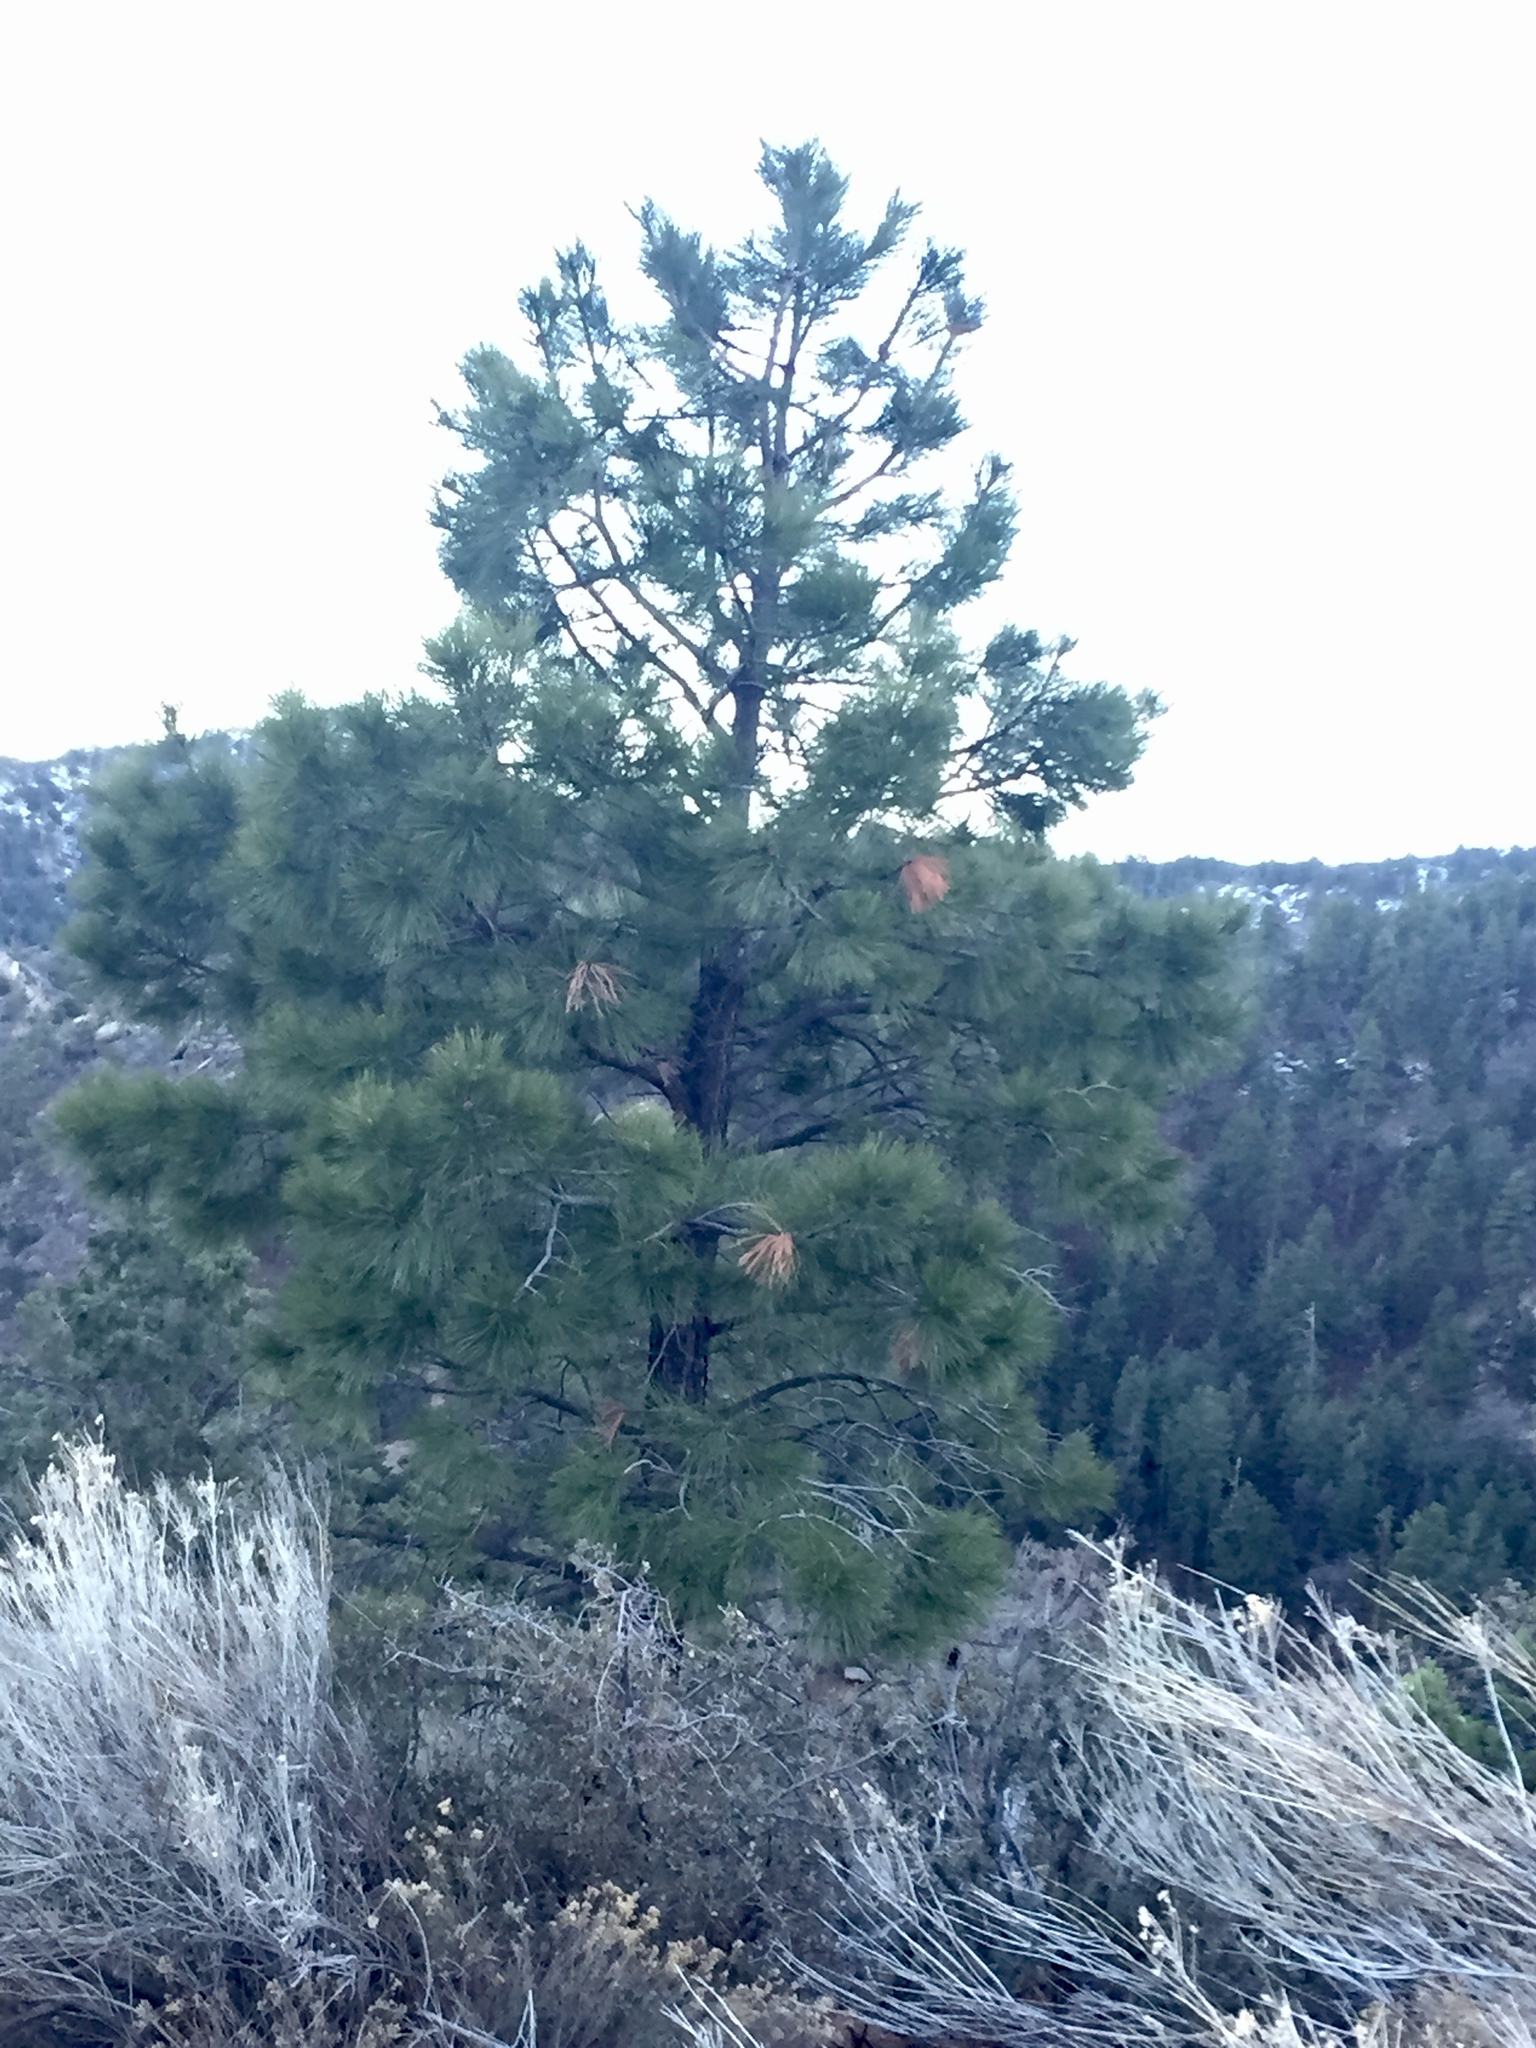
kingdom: Plantae
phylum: Tracheophyta
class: Pinopsida
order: Pinales
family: Pinaceae
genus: Pinus
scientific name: Pinus ponderosa
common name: Western yellow-pine
